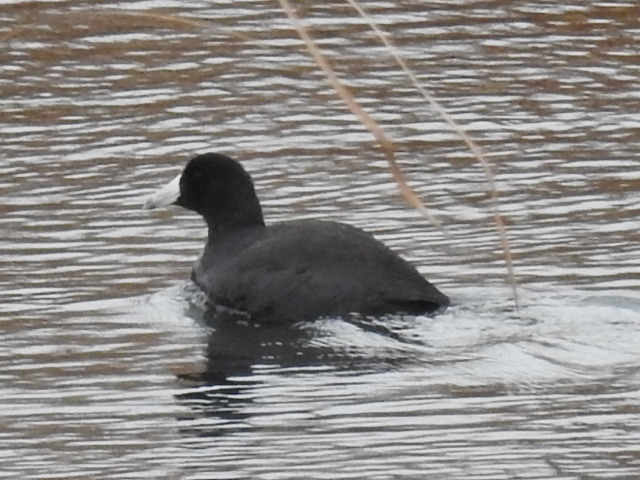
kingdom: Animalia
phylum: Chordata
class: Aves
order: Gruiformes
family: Rallidae
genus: Fulica
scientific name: Fulica americana
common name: American coot
